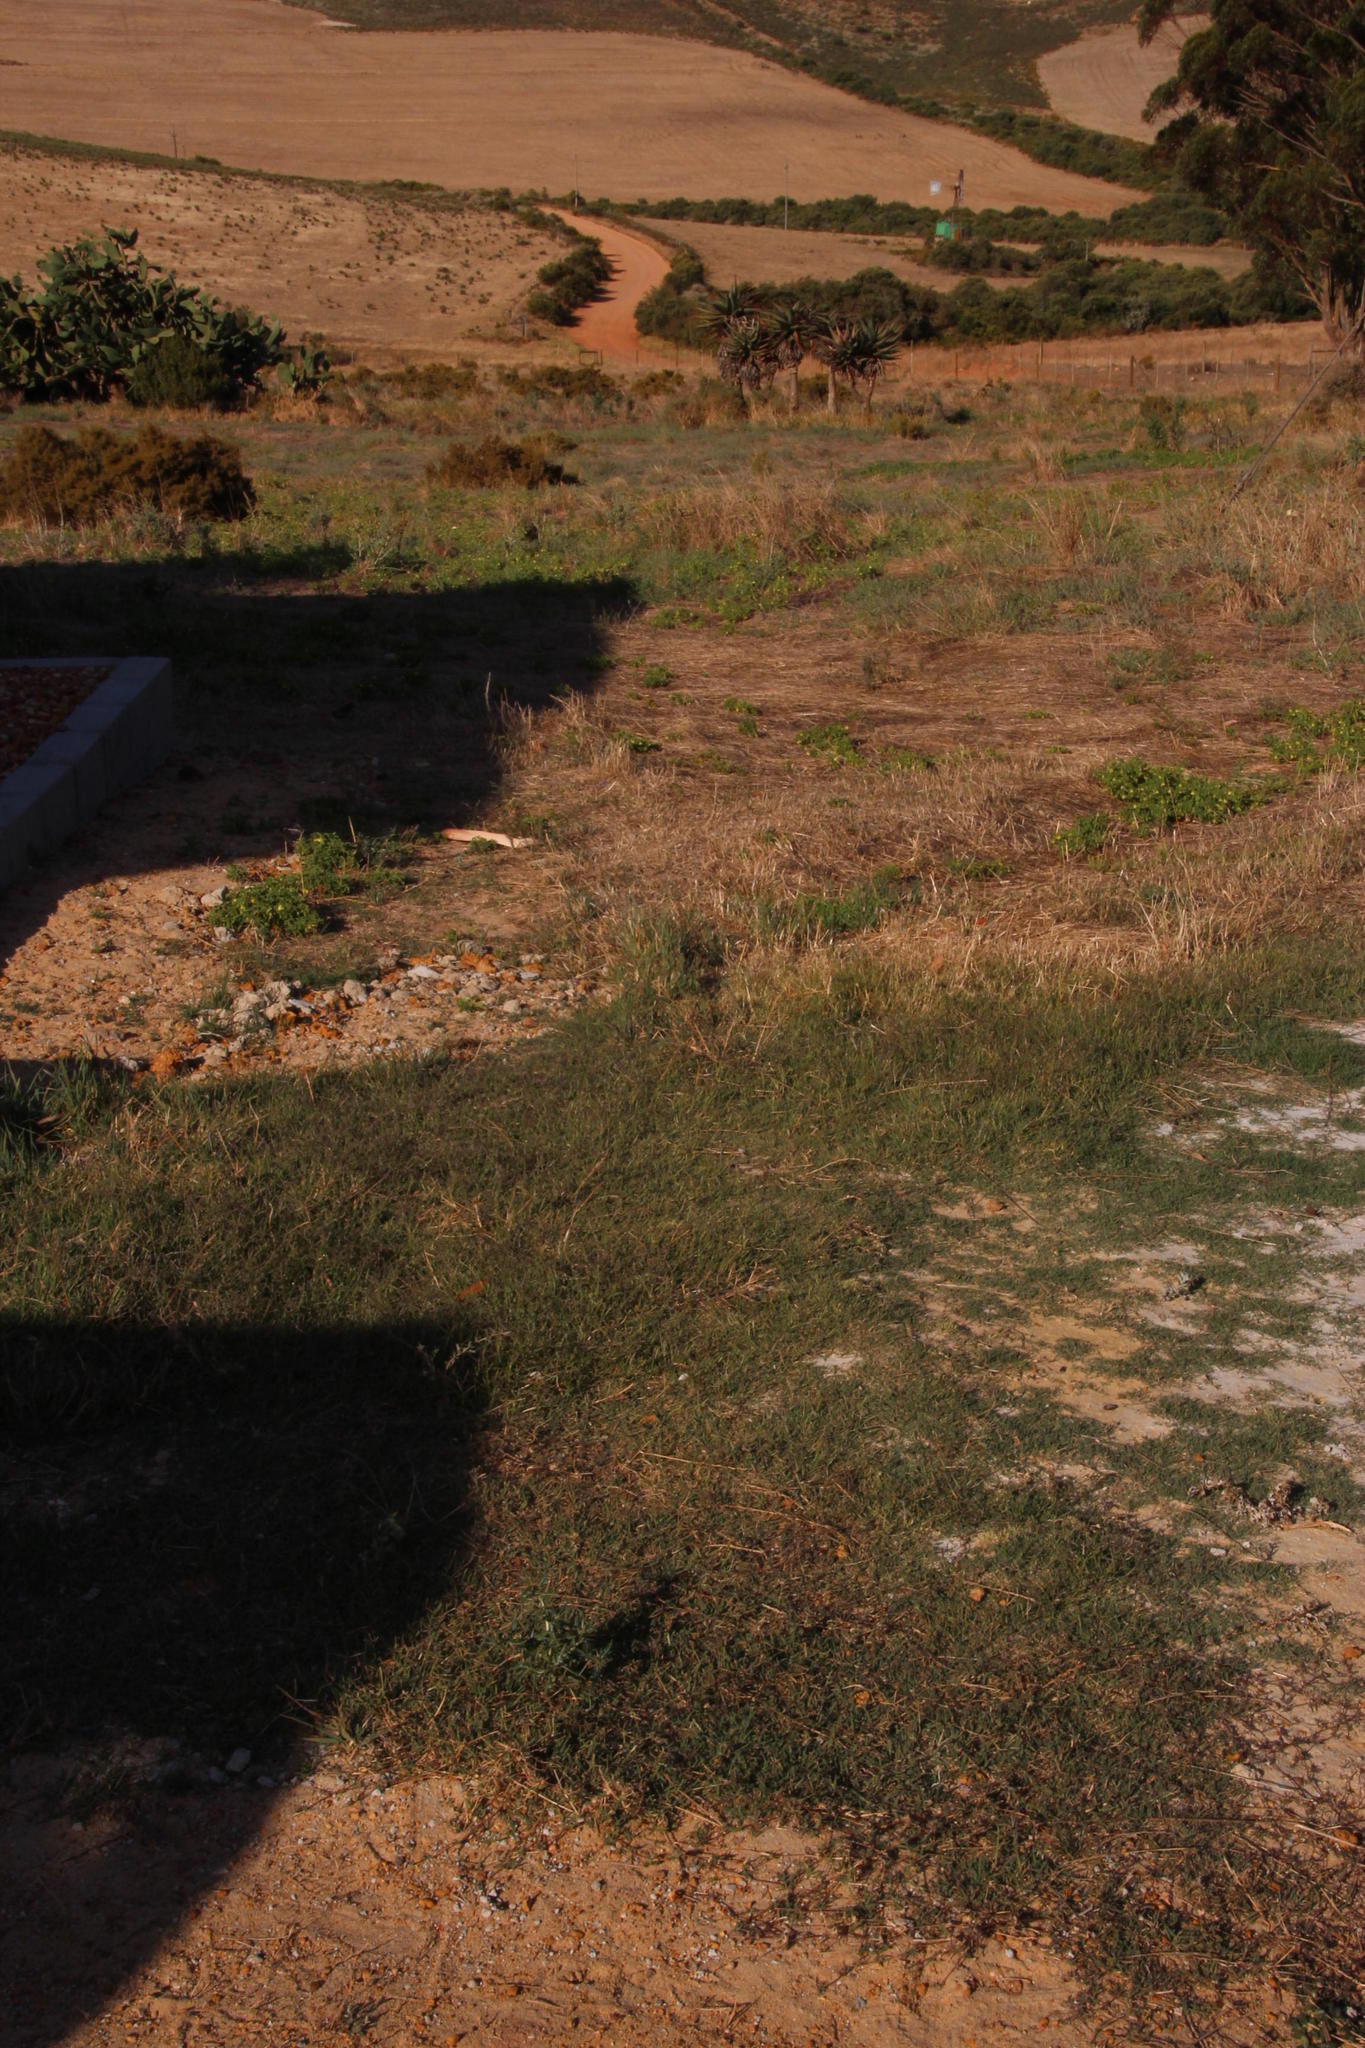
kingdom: Plantae
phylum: Tracheophyta
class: Magnoliopsida
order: Caryophyllales
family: Amaranthaceae
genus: Alternanthera
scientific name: Alternanthera pungens
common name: Khakiweed
